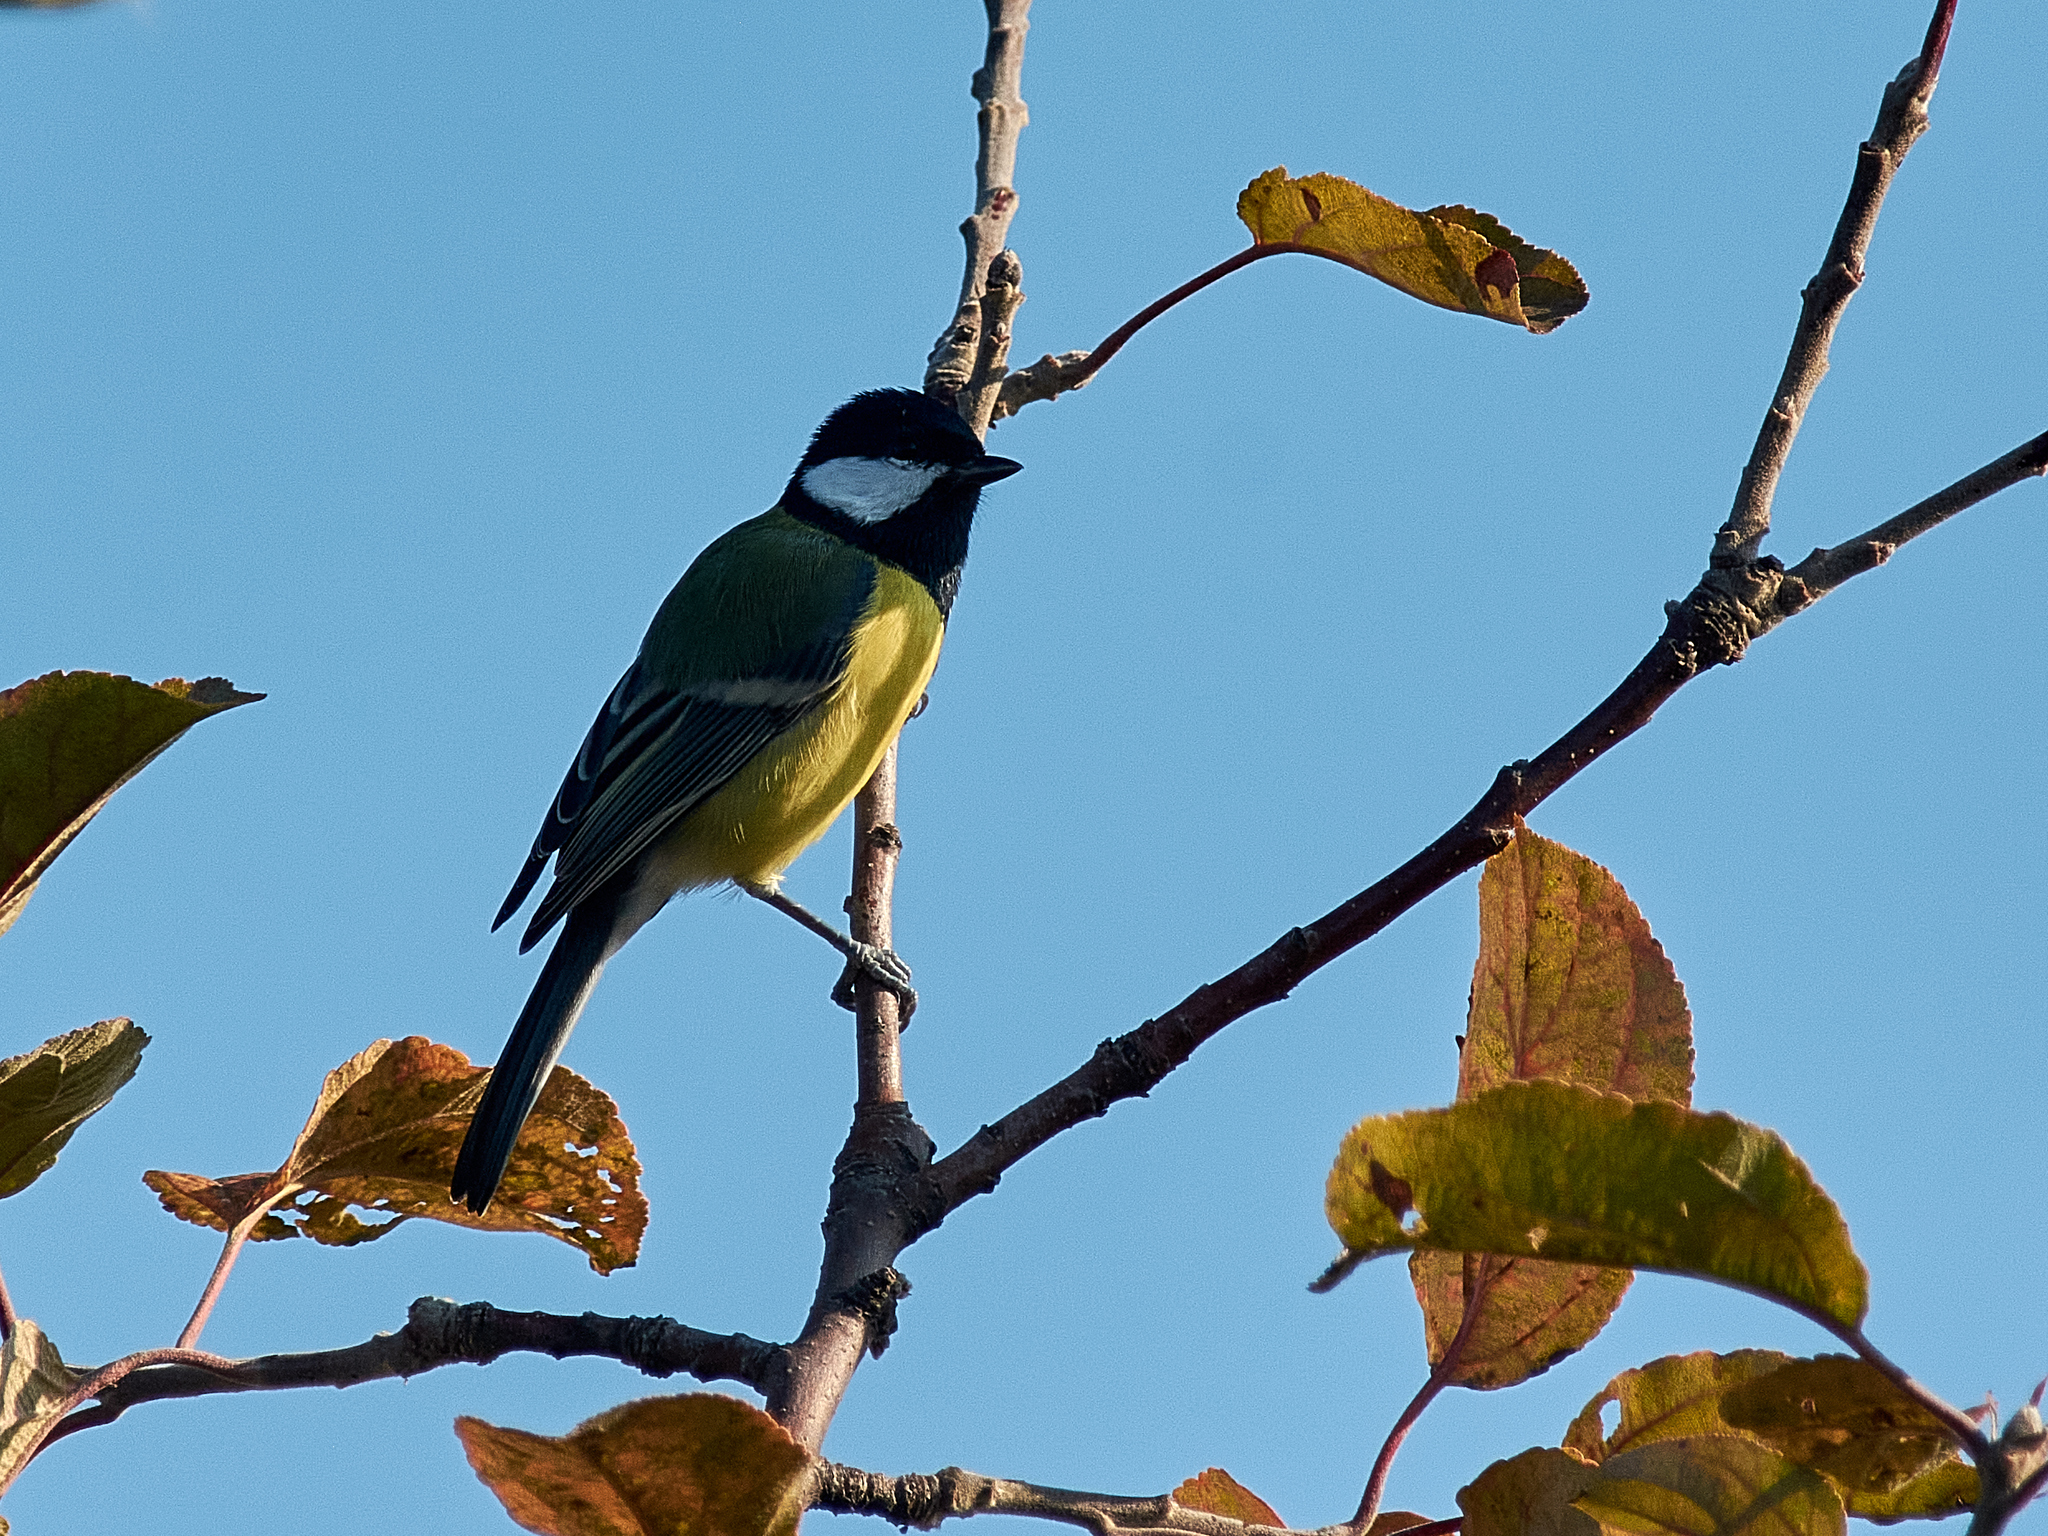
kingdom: Animalia
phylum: Chordata
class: Aves
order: Passeriformes
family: Paridae
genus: Parus
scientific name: Parus major
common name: Great tit
